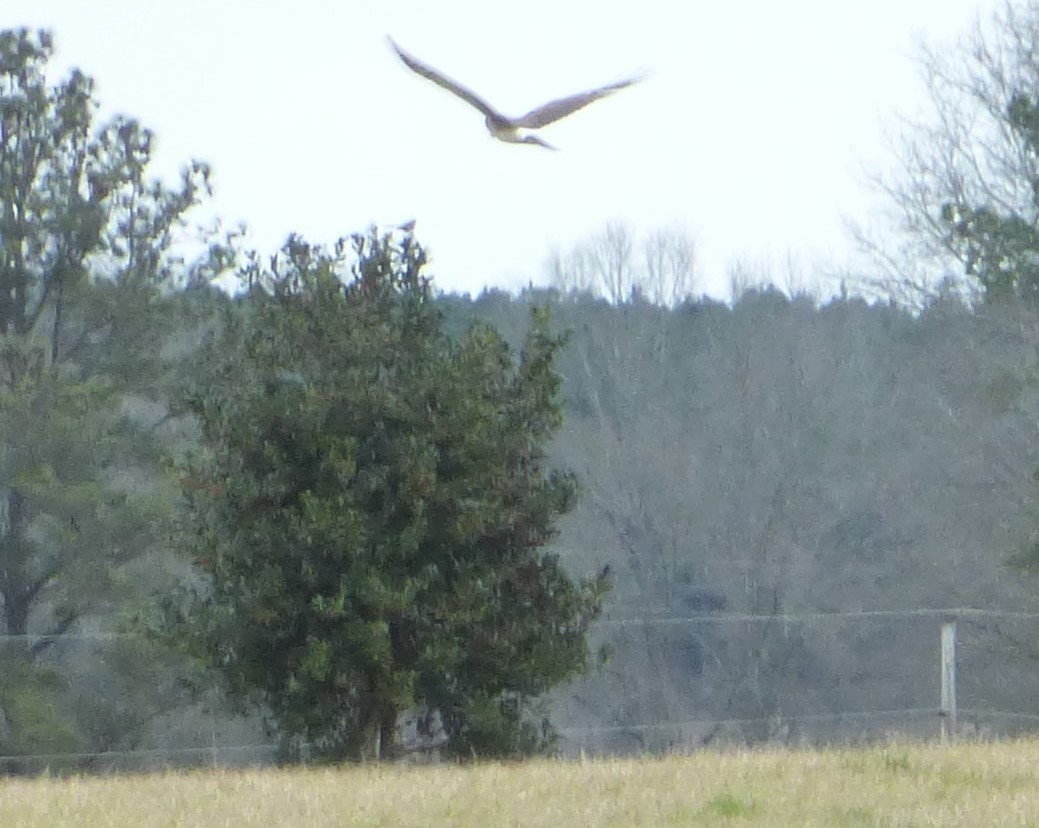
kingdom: Animalia
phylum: Chordata
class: Aves
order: Accipitriformes
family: Accipitridae
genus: Circus
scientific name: Circus cyaneus
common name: Hen harrier
